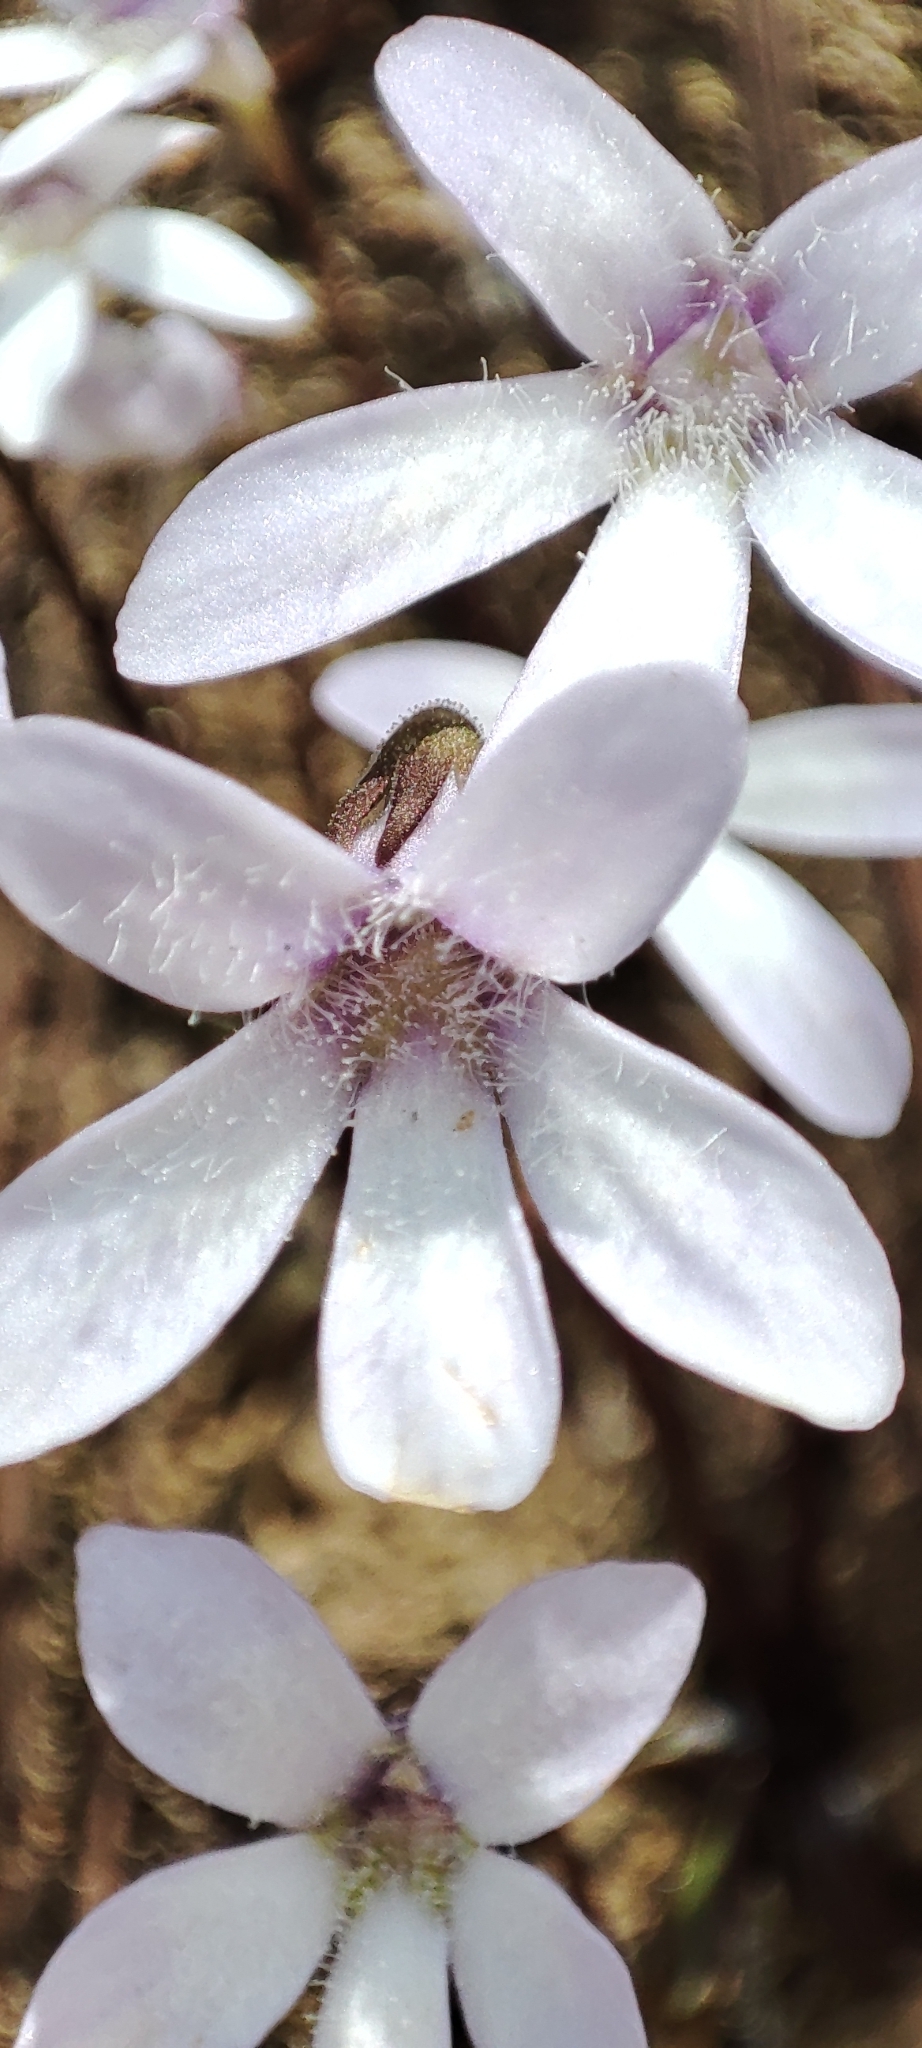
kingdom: Plantae
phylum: Tracheophyta
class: Magnoliopsida
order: Lamiales
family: Lentibulariaceae
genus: Pinguicula
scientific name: Pinguicula parvifolia
